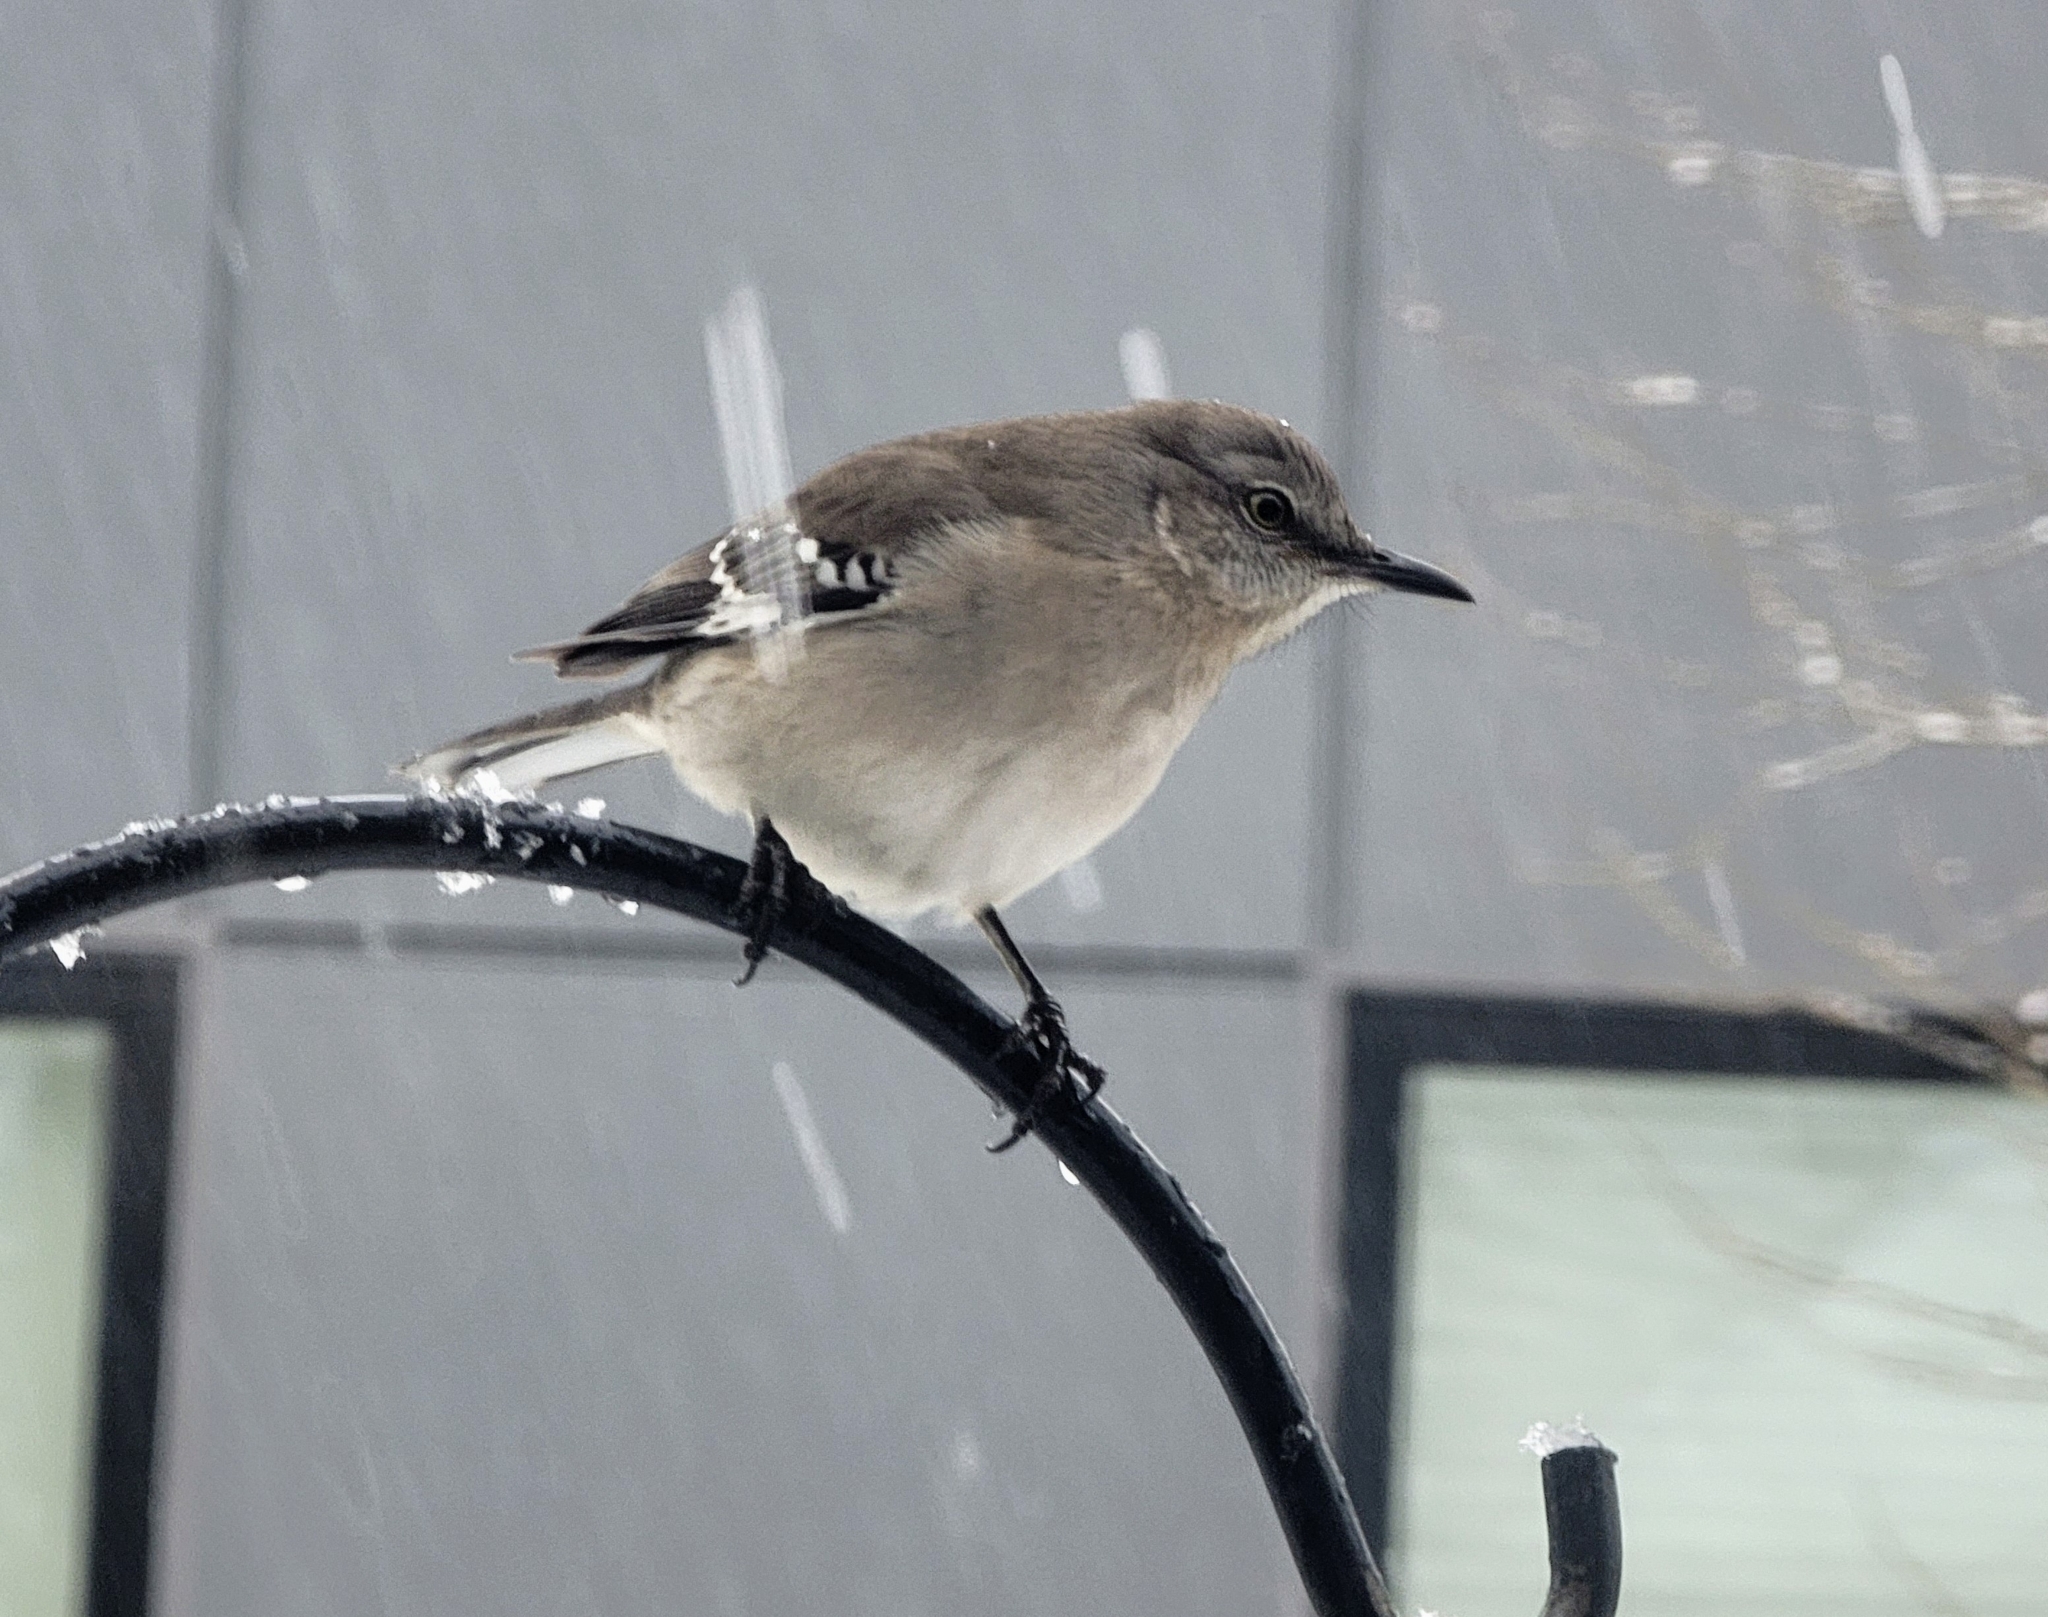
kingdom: Animalia
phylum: Chordata
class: Aves
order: Passeriformes
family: Mimidae
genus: Mimus
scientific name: Mimus polyglottos
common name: Northern mockingbird
